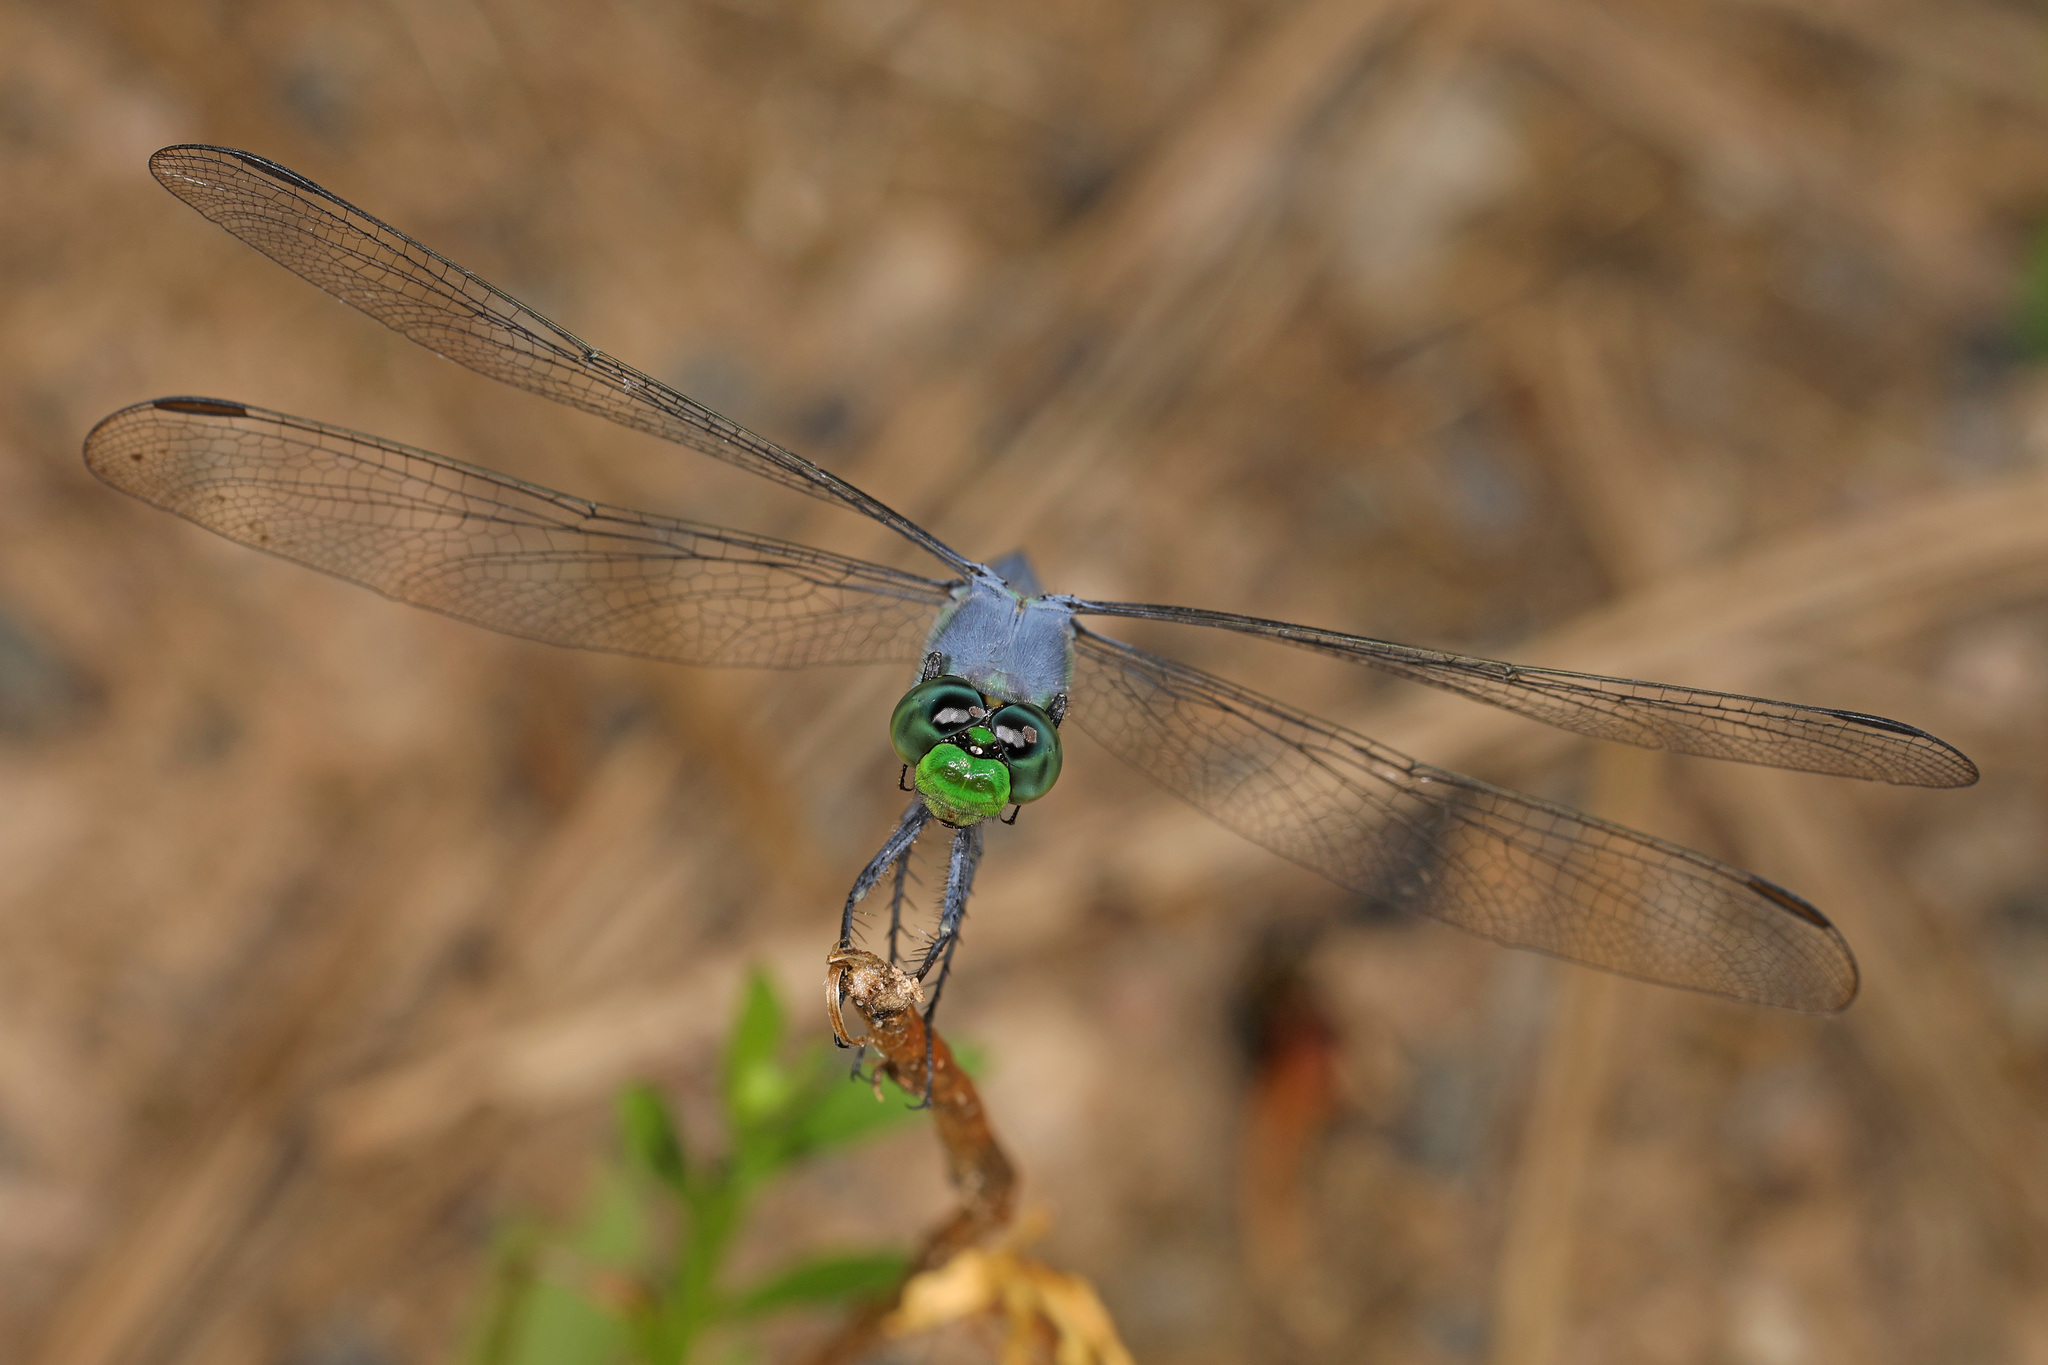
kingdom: Animalia
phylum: Arthropoda
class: Insecta
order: Odonata
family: Libellulidae
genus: Erythemis
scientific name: Erythemis simplicicollis
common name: Eastern pondhawk
